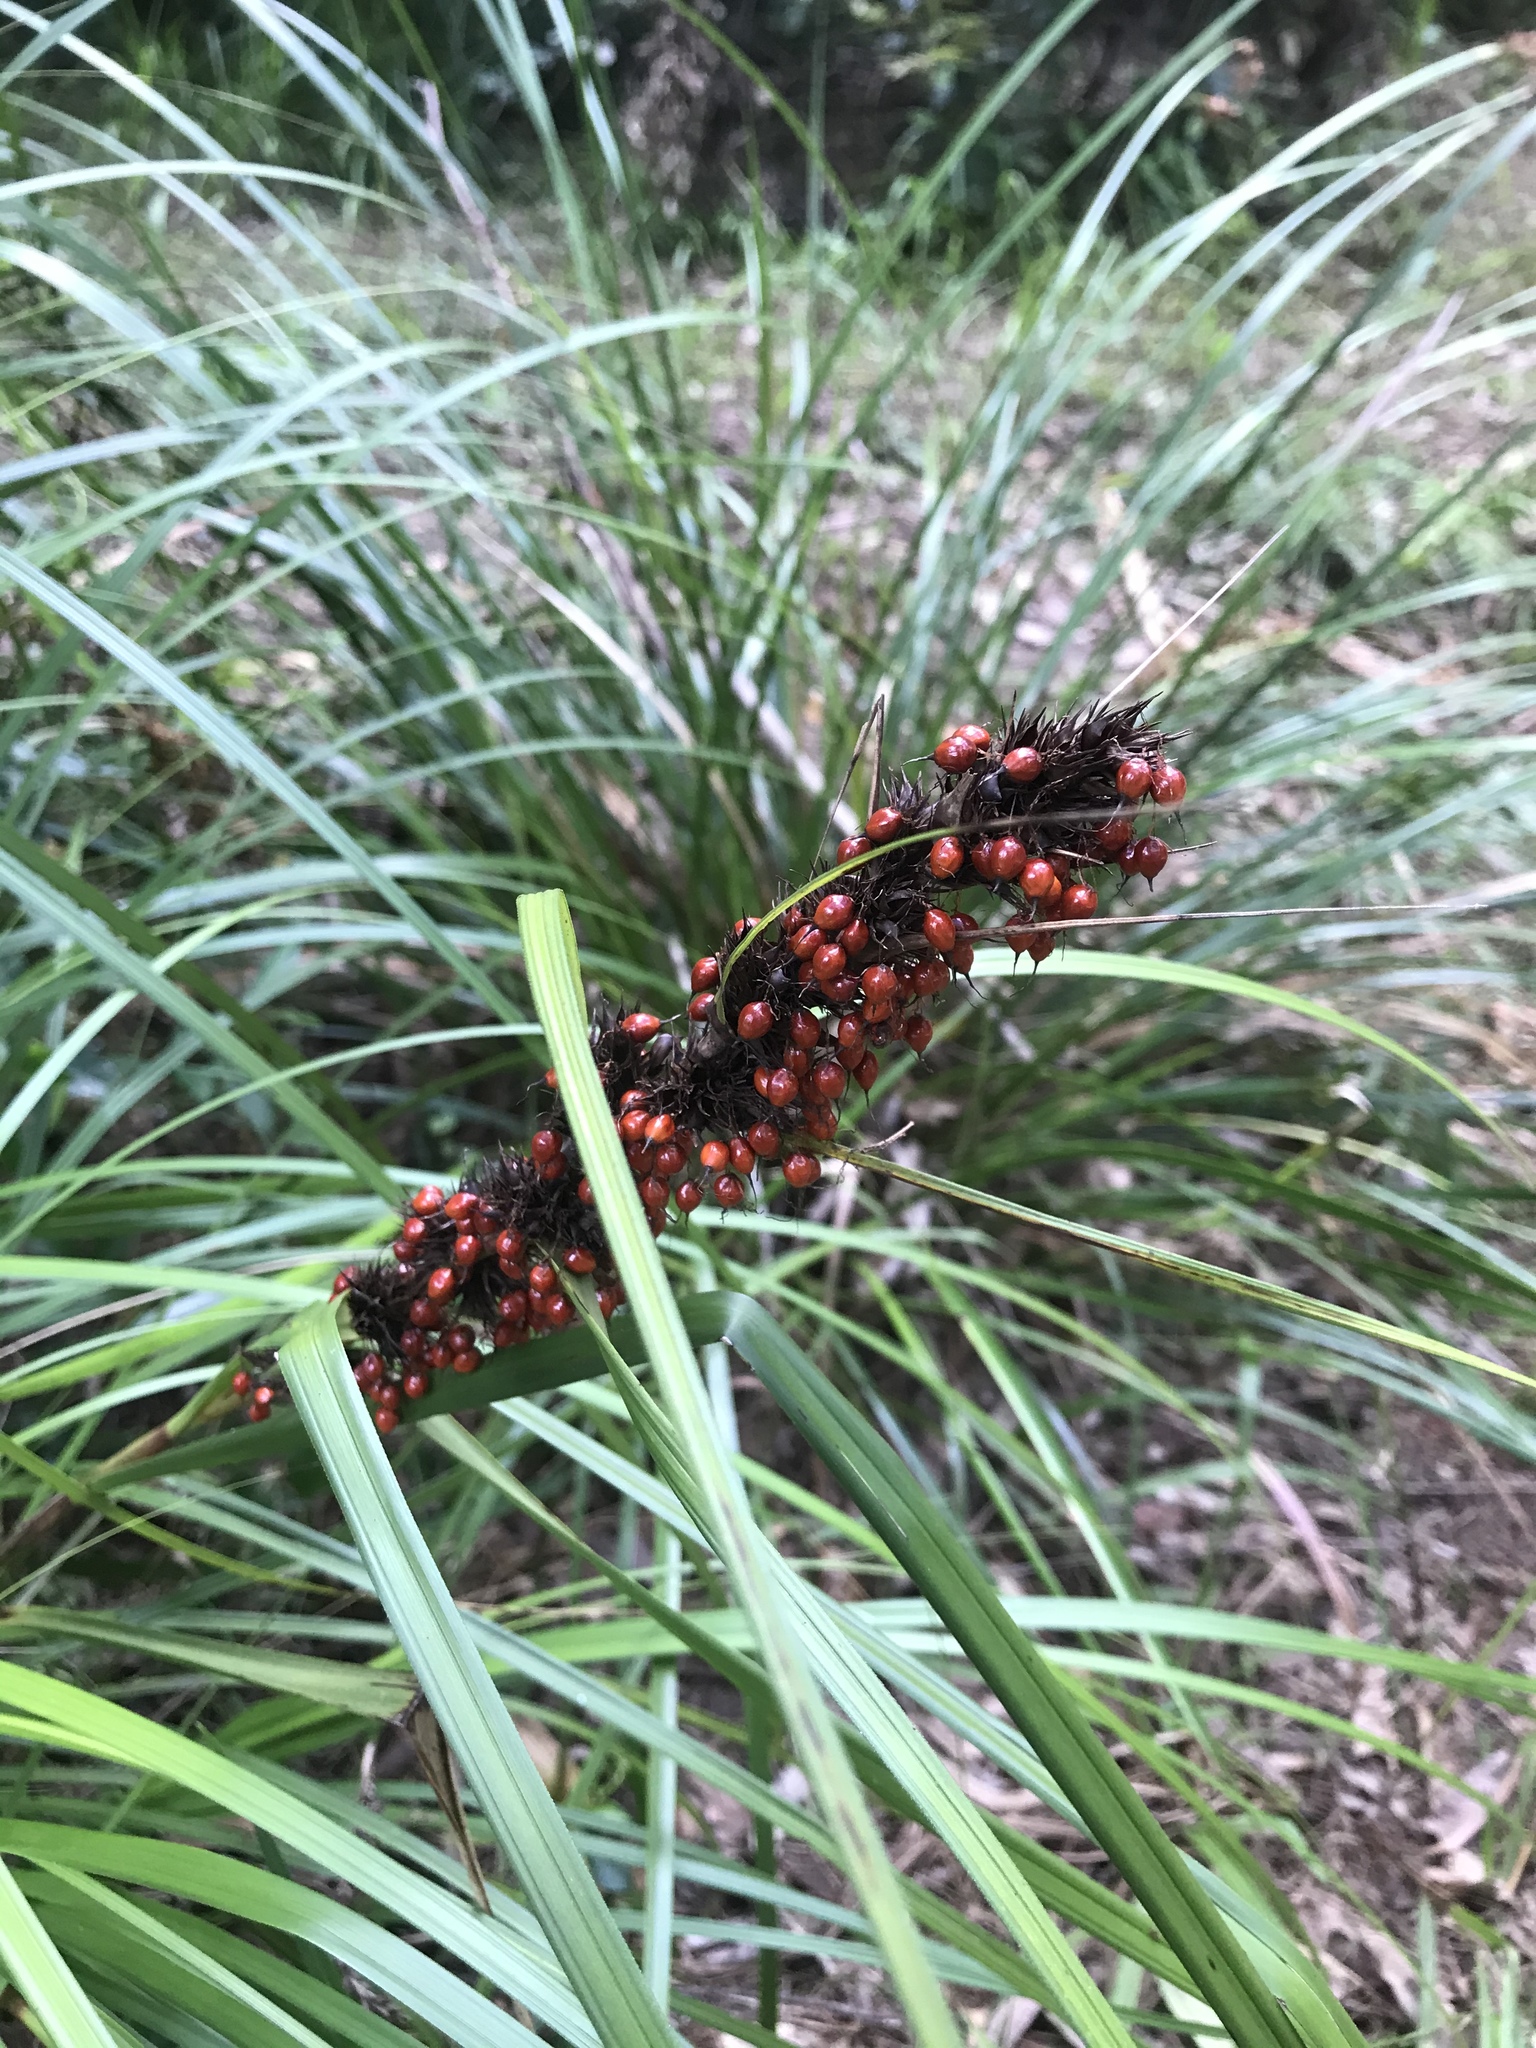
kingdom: Plantae
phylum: Tracheophyta
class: Liliopsida
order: Poales
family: Cyperaceae
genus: Gahnia
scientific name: Gahnia aspera
